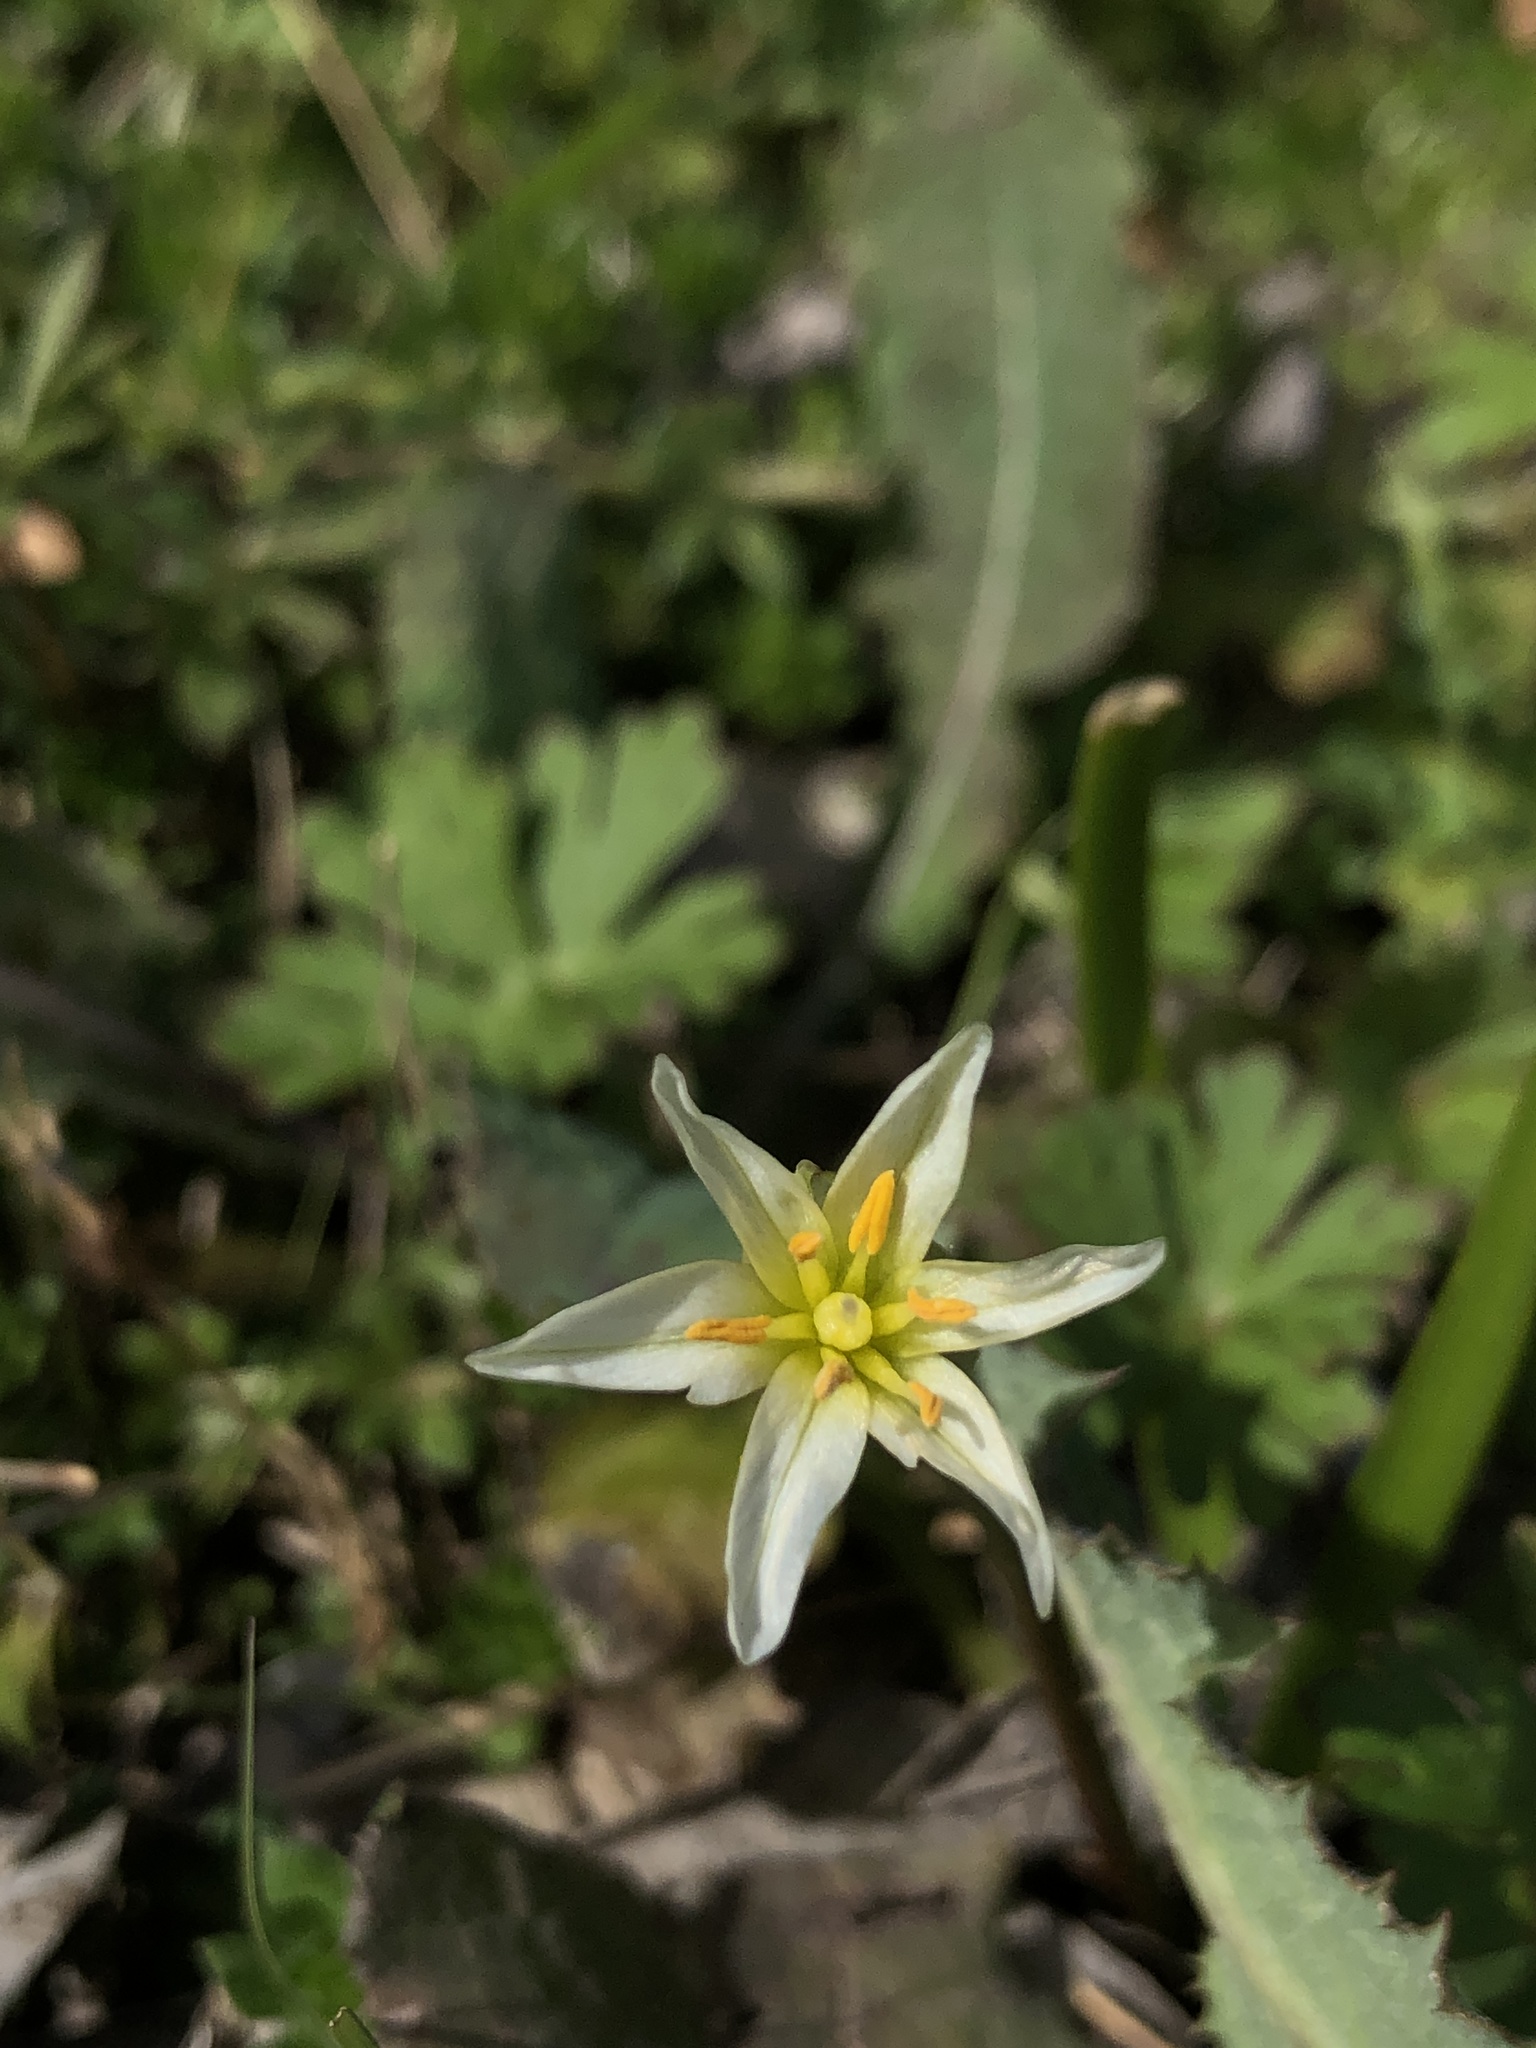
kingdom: Plantae
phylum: Tracheophyta
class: Liliopsida
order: Asparagales
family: Amaryllidaceae
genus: Nothoscordum
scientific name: Nothoscordum bivalve
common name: Crow-poison
